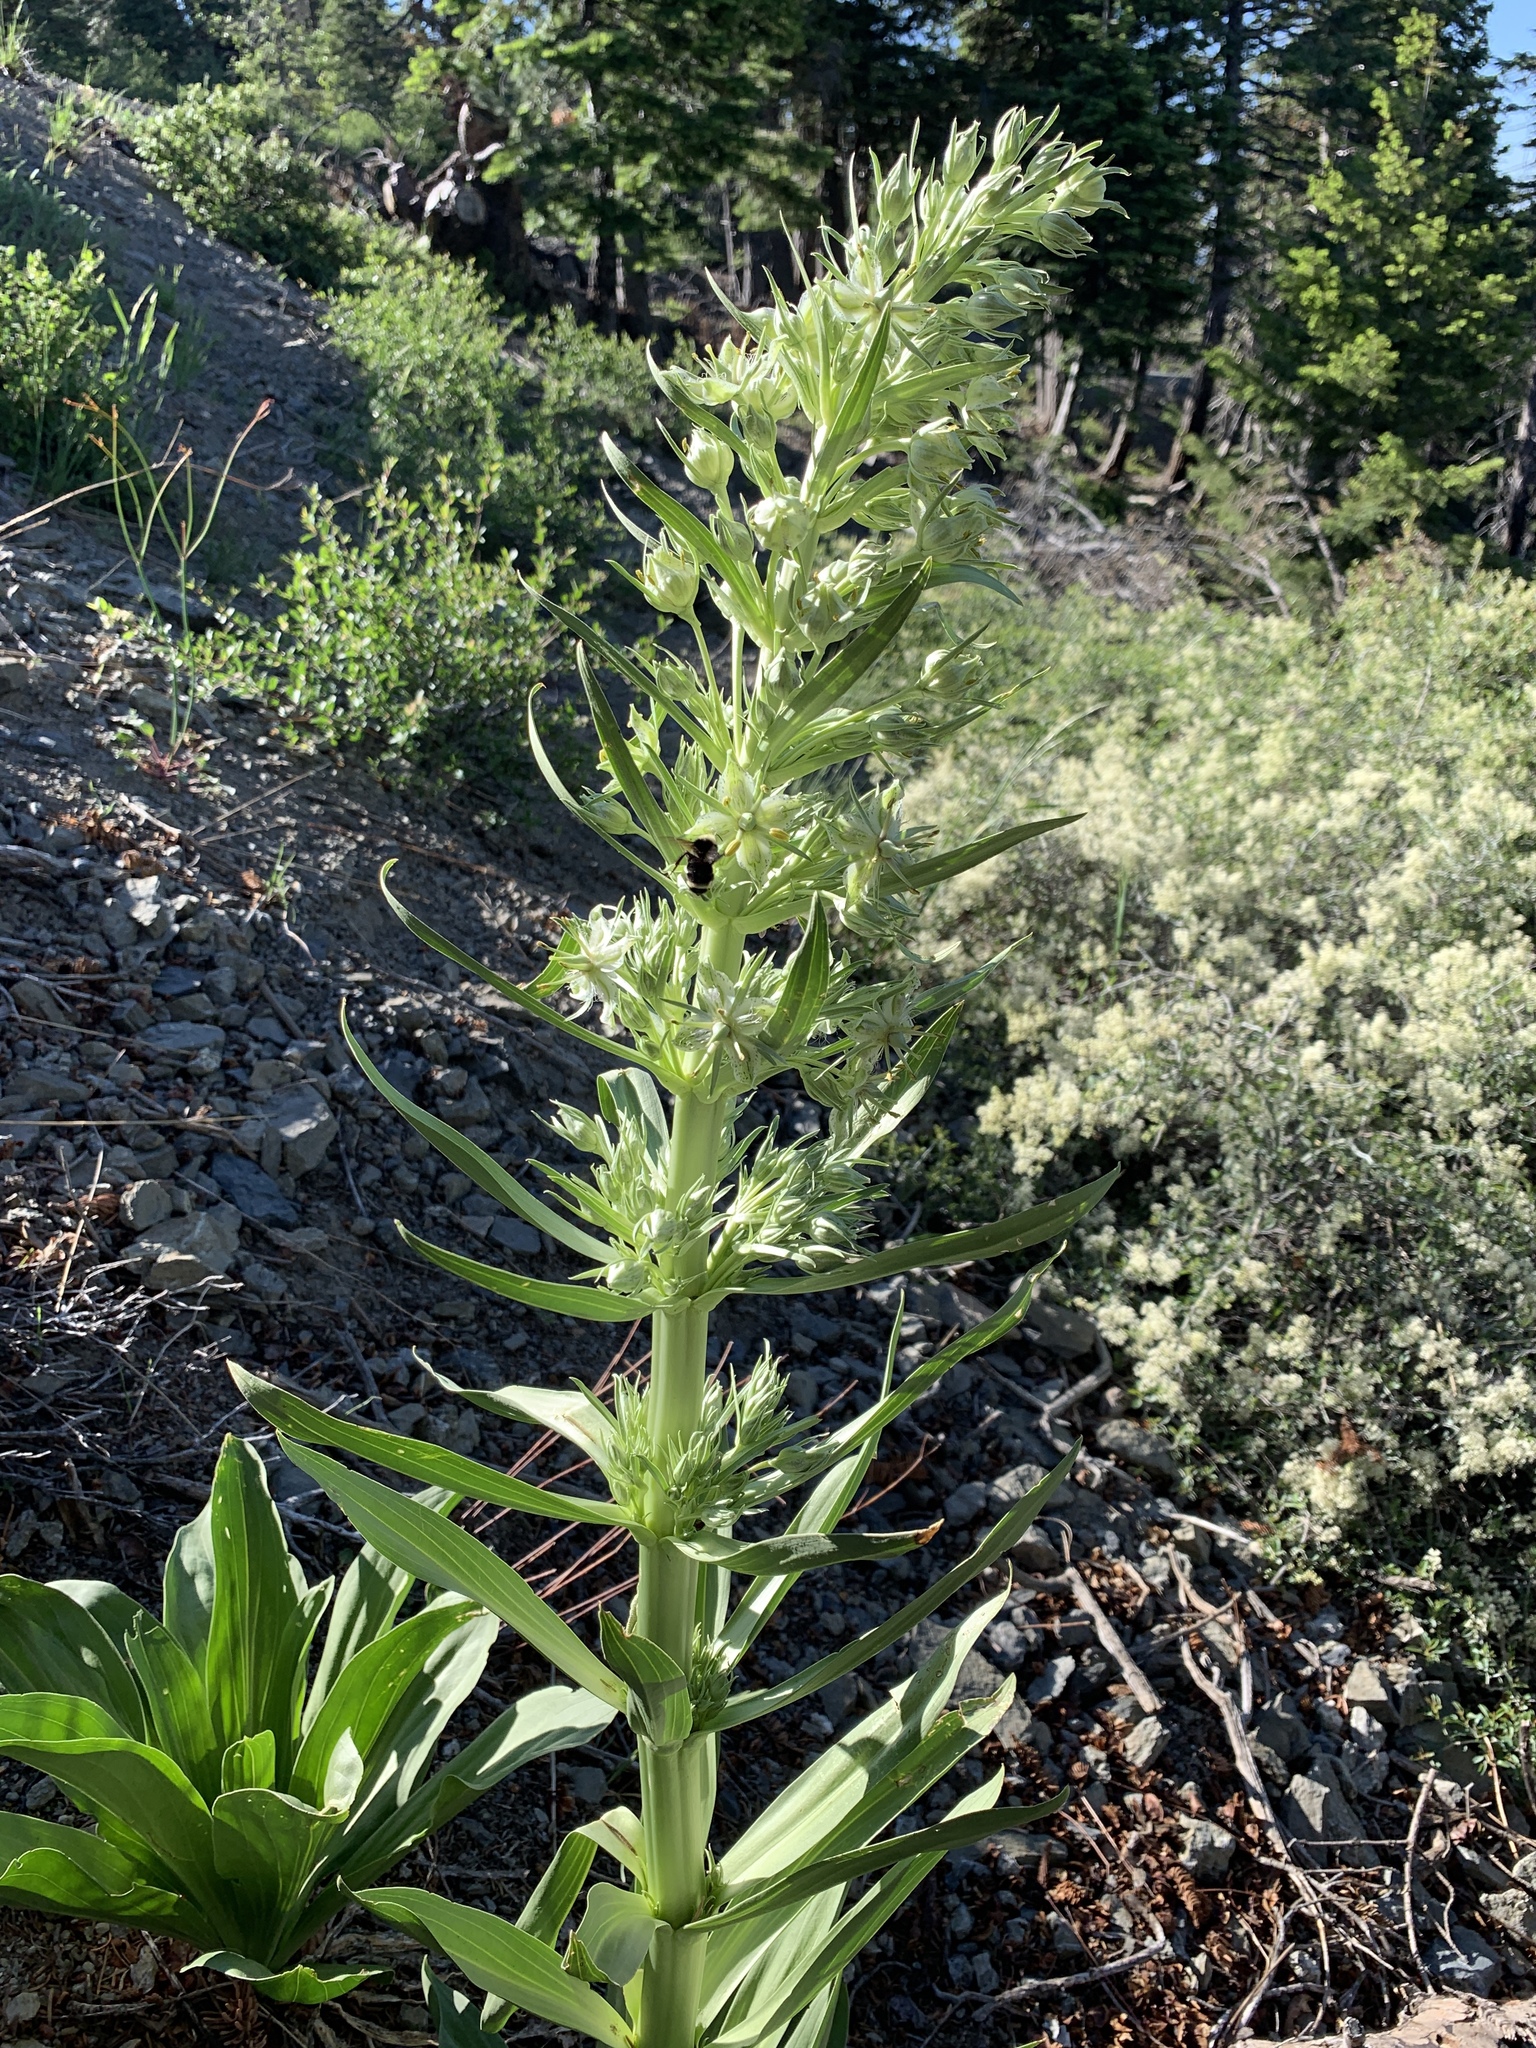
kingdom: Plantae
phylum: Tracheophyta
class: Magnoliopsida
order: Gentianales
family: Gentianaceae
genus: Frasera
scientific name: Frasera speciosa
